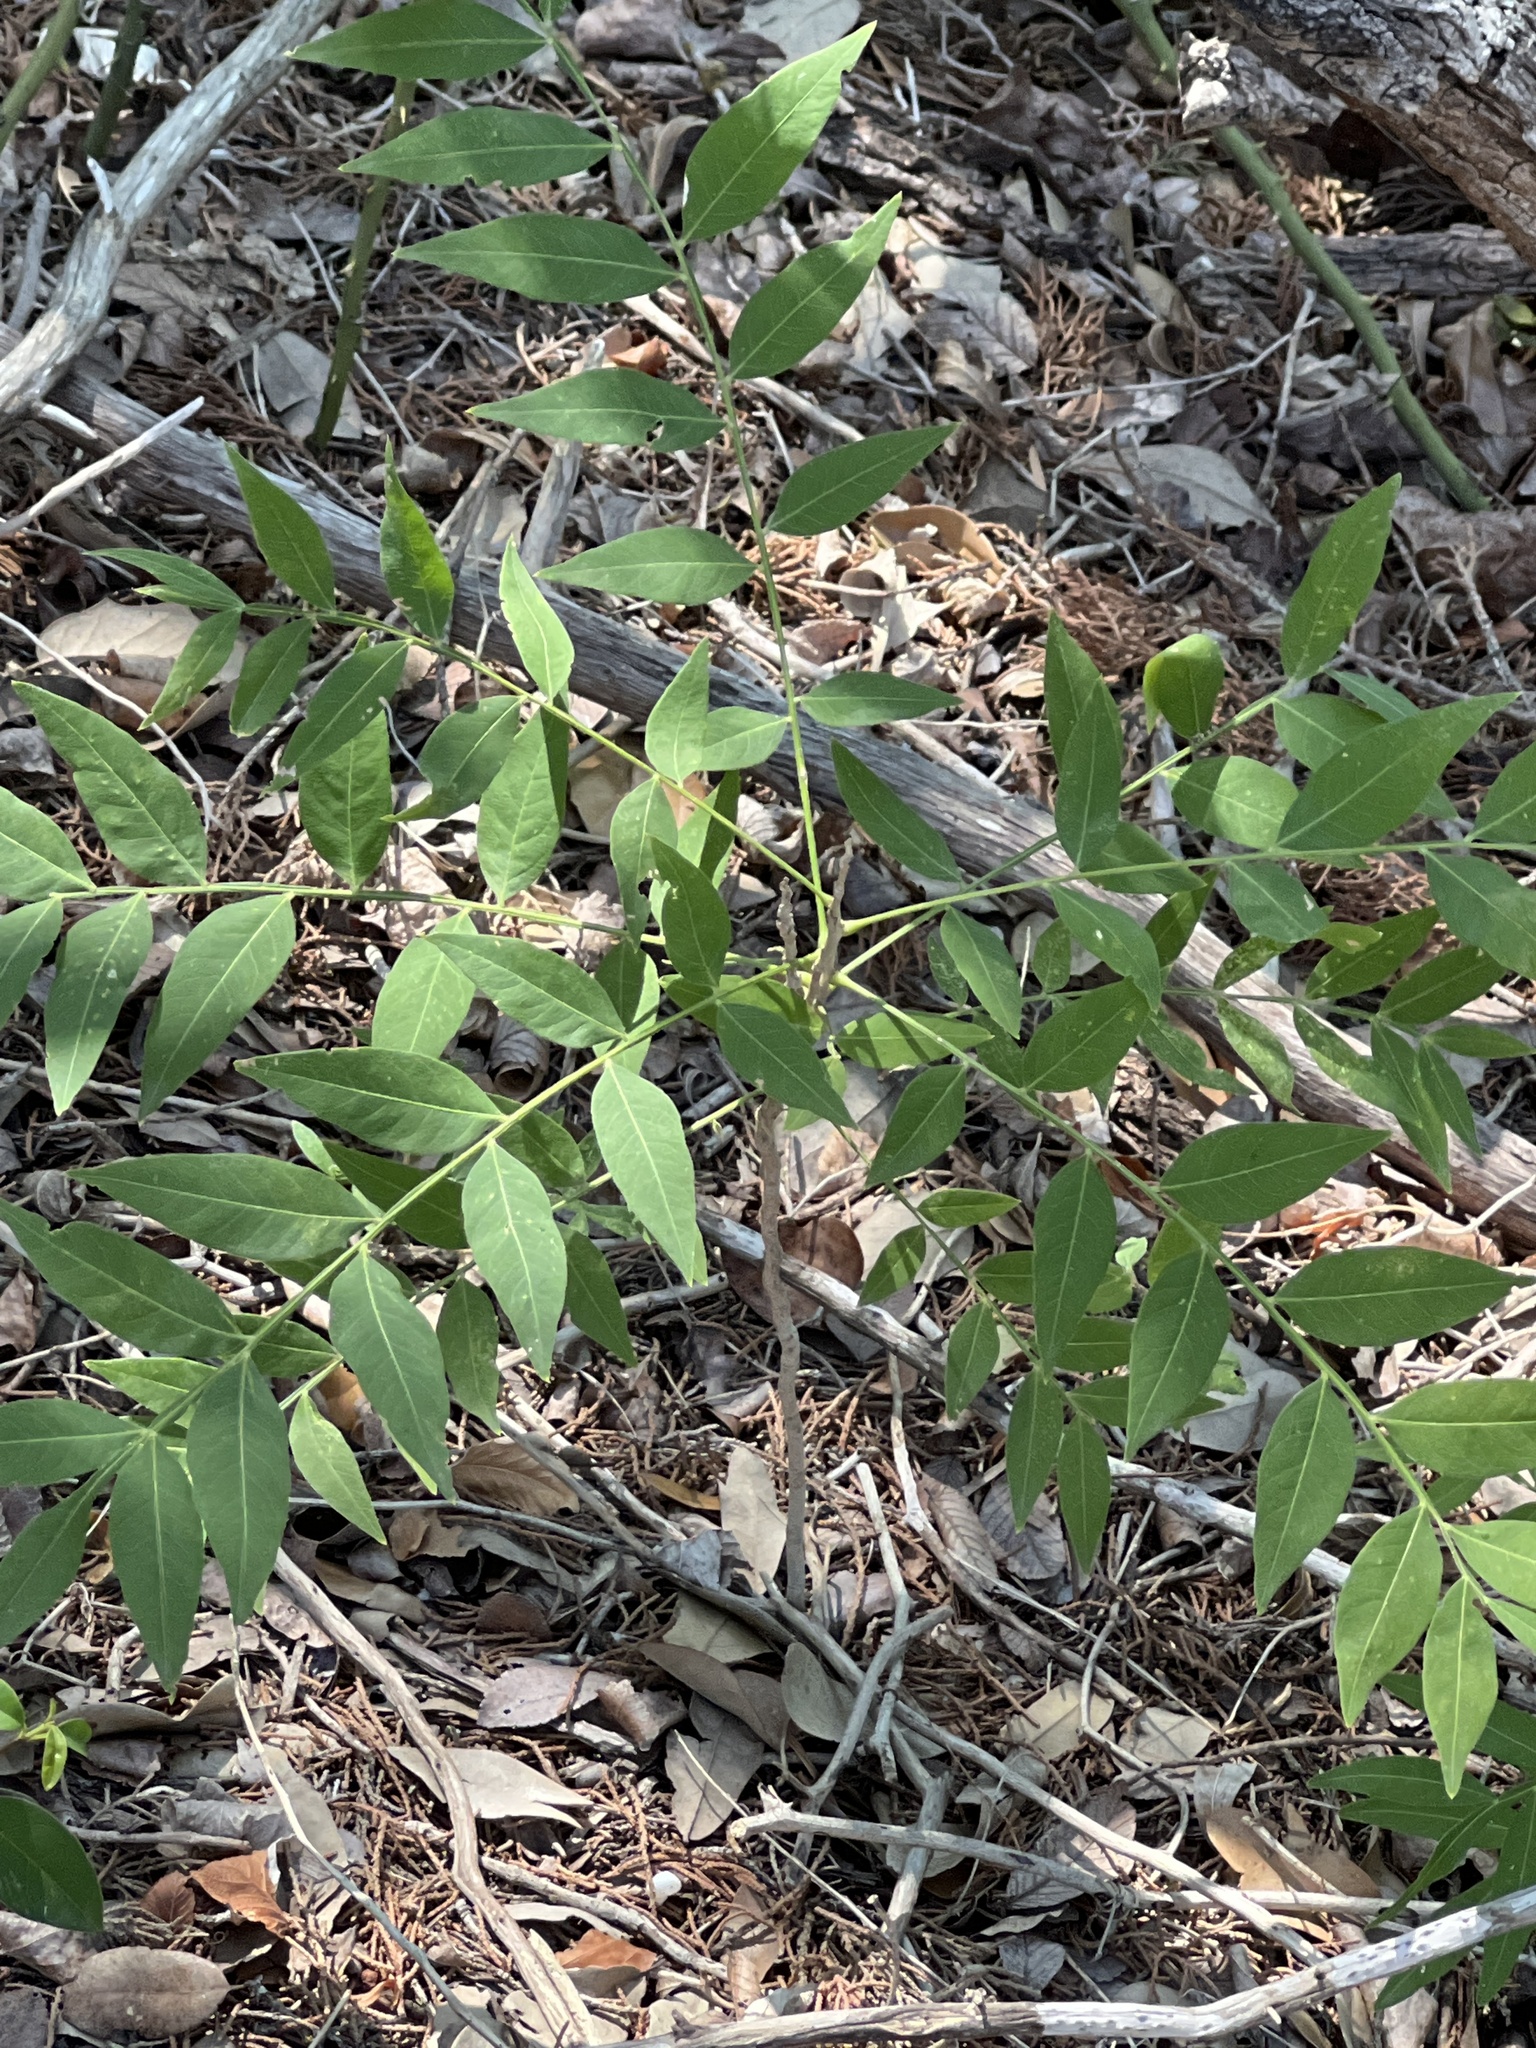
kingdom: Plantae
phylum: Tracheophyta
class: Magnoliopsida
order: Sapindales
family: Sapindaceae
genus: Sapindus
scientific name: Sapindus drummondii
